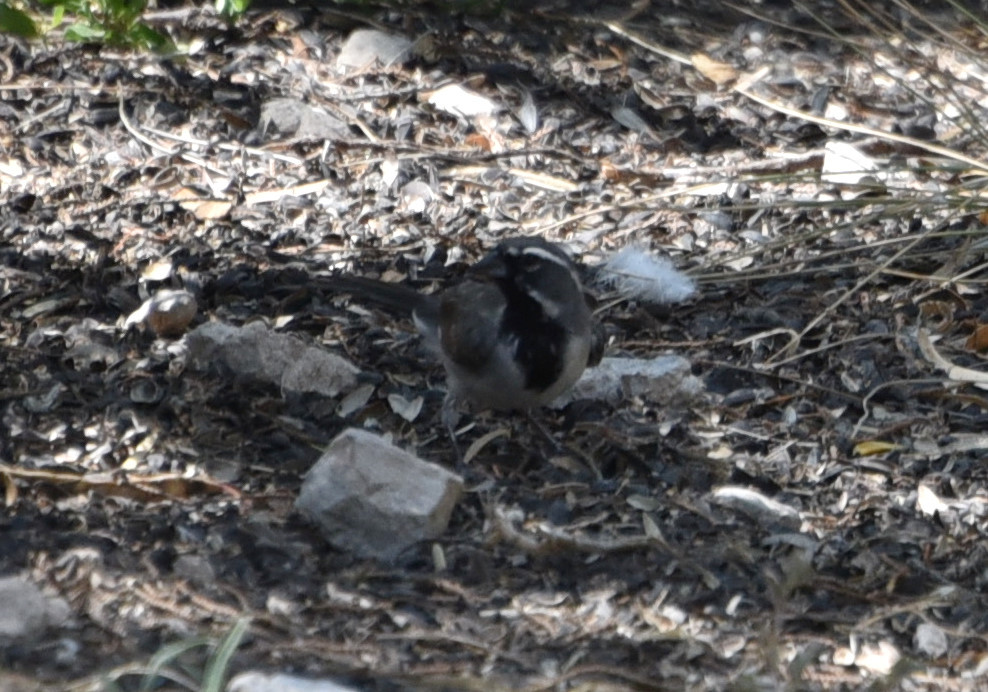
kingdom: Animalia
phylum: Chordata
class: Aves
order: Passeriformes
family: Passerellidae
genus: Amphispiza
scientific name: Amphispiza bilineata
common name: Black-throated sparrow
